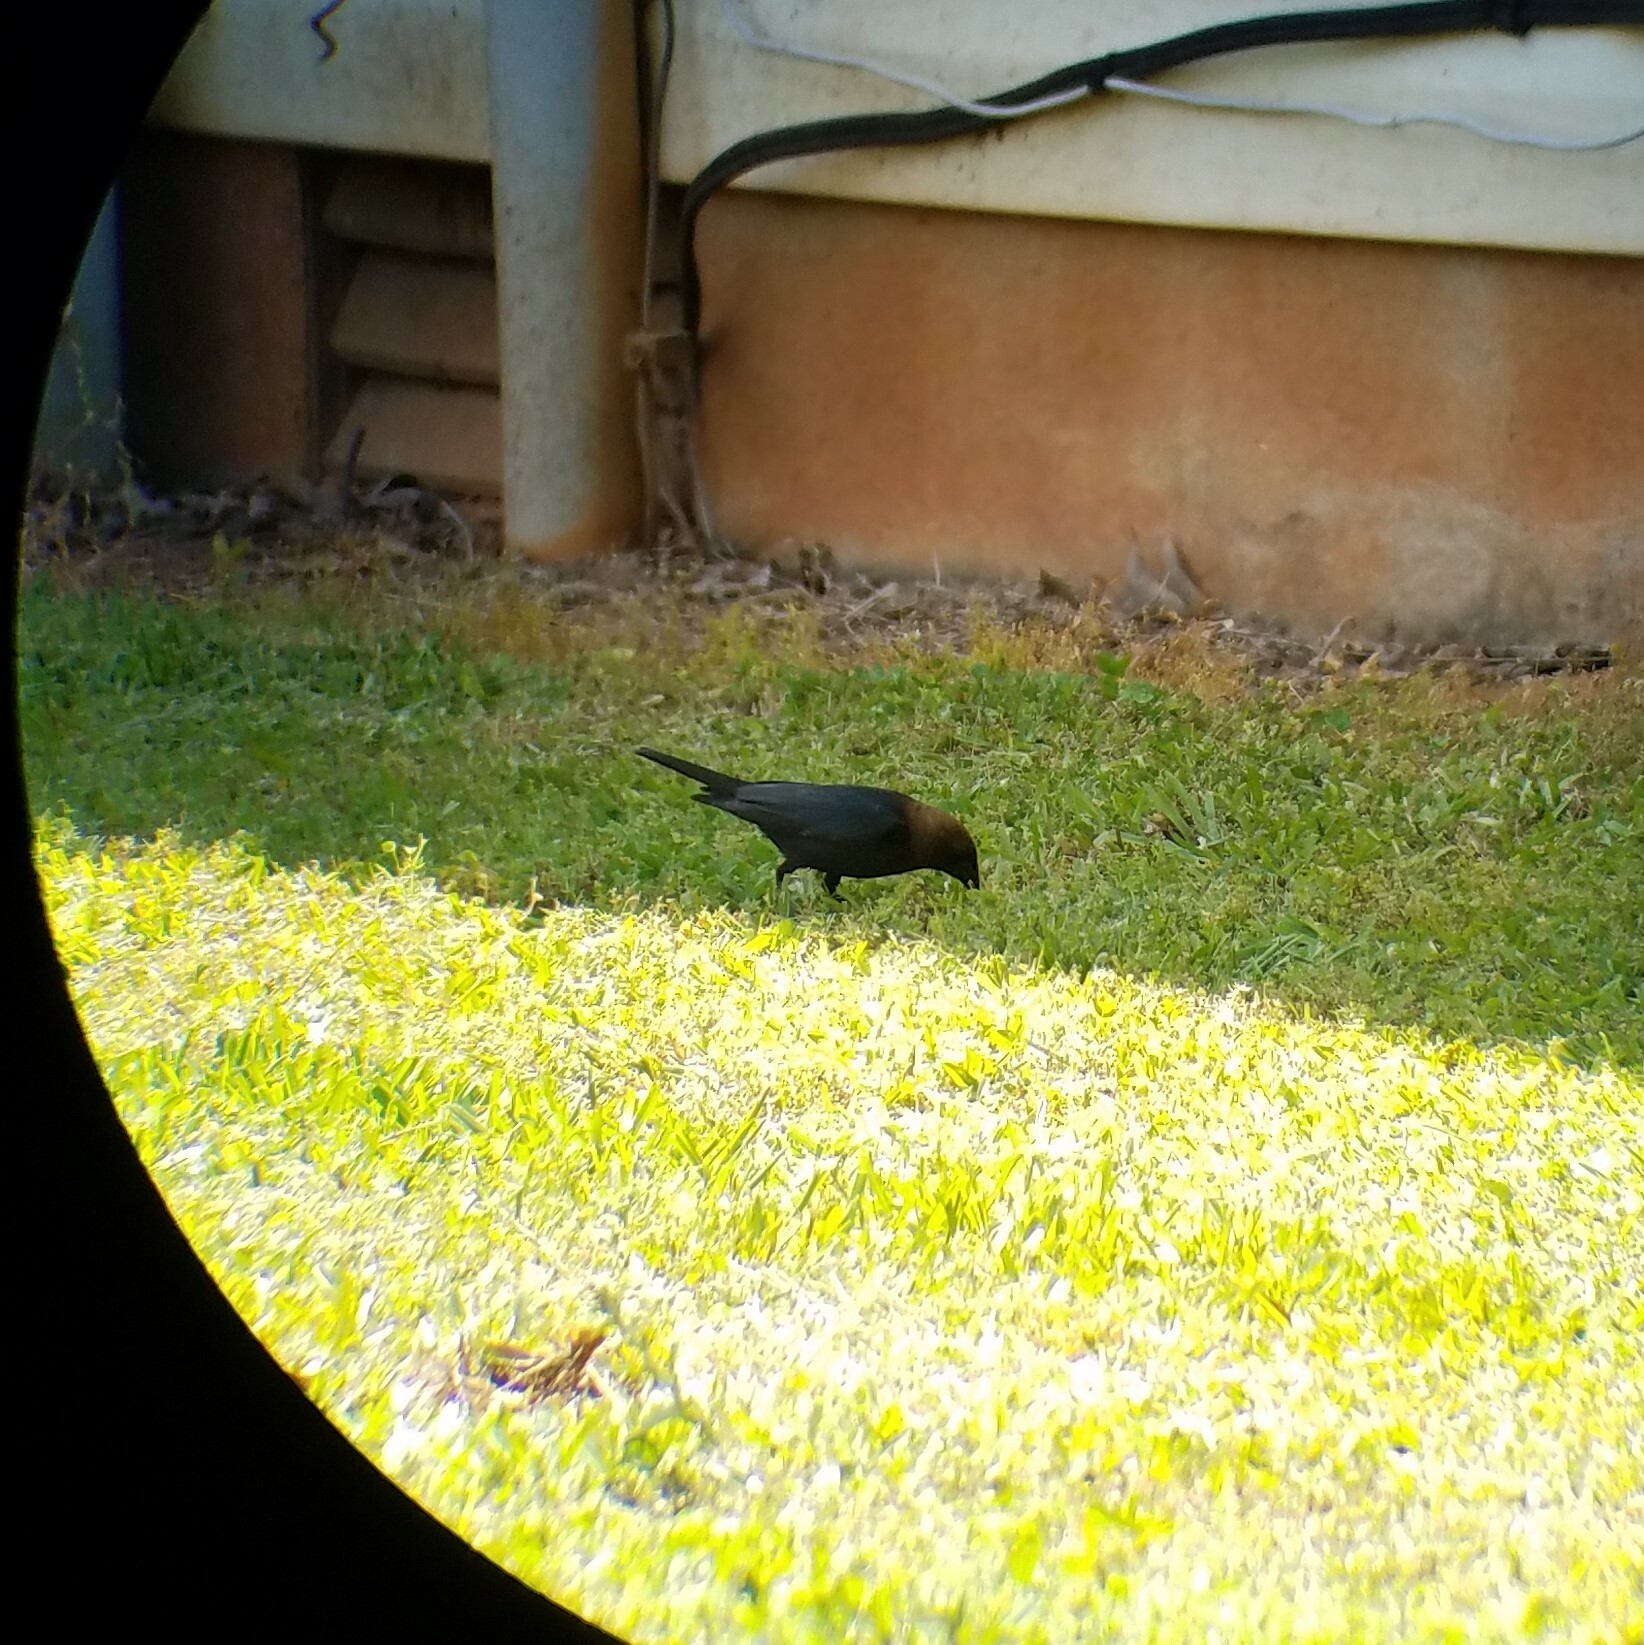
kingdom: Animalia
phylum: Chordata
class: Aves
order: Passeriformes
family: Icteridae
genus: Molothrus
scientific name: Molothrus ater
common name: Brown-headed cowbird
